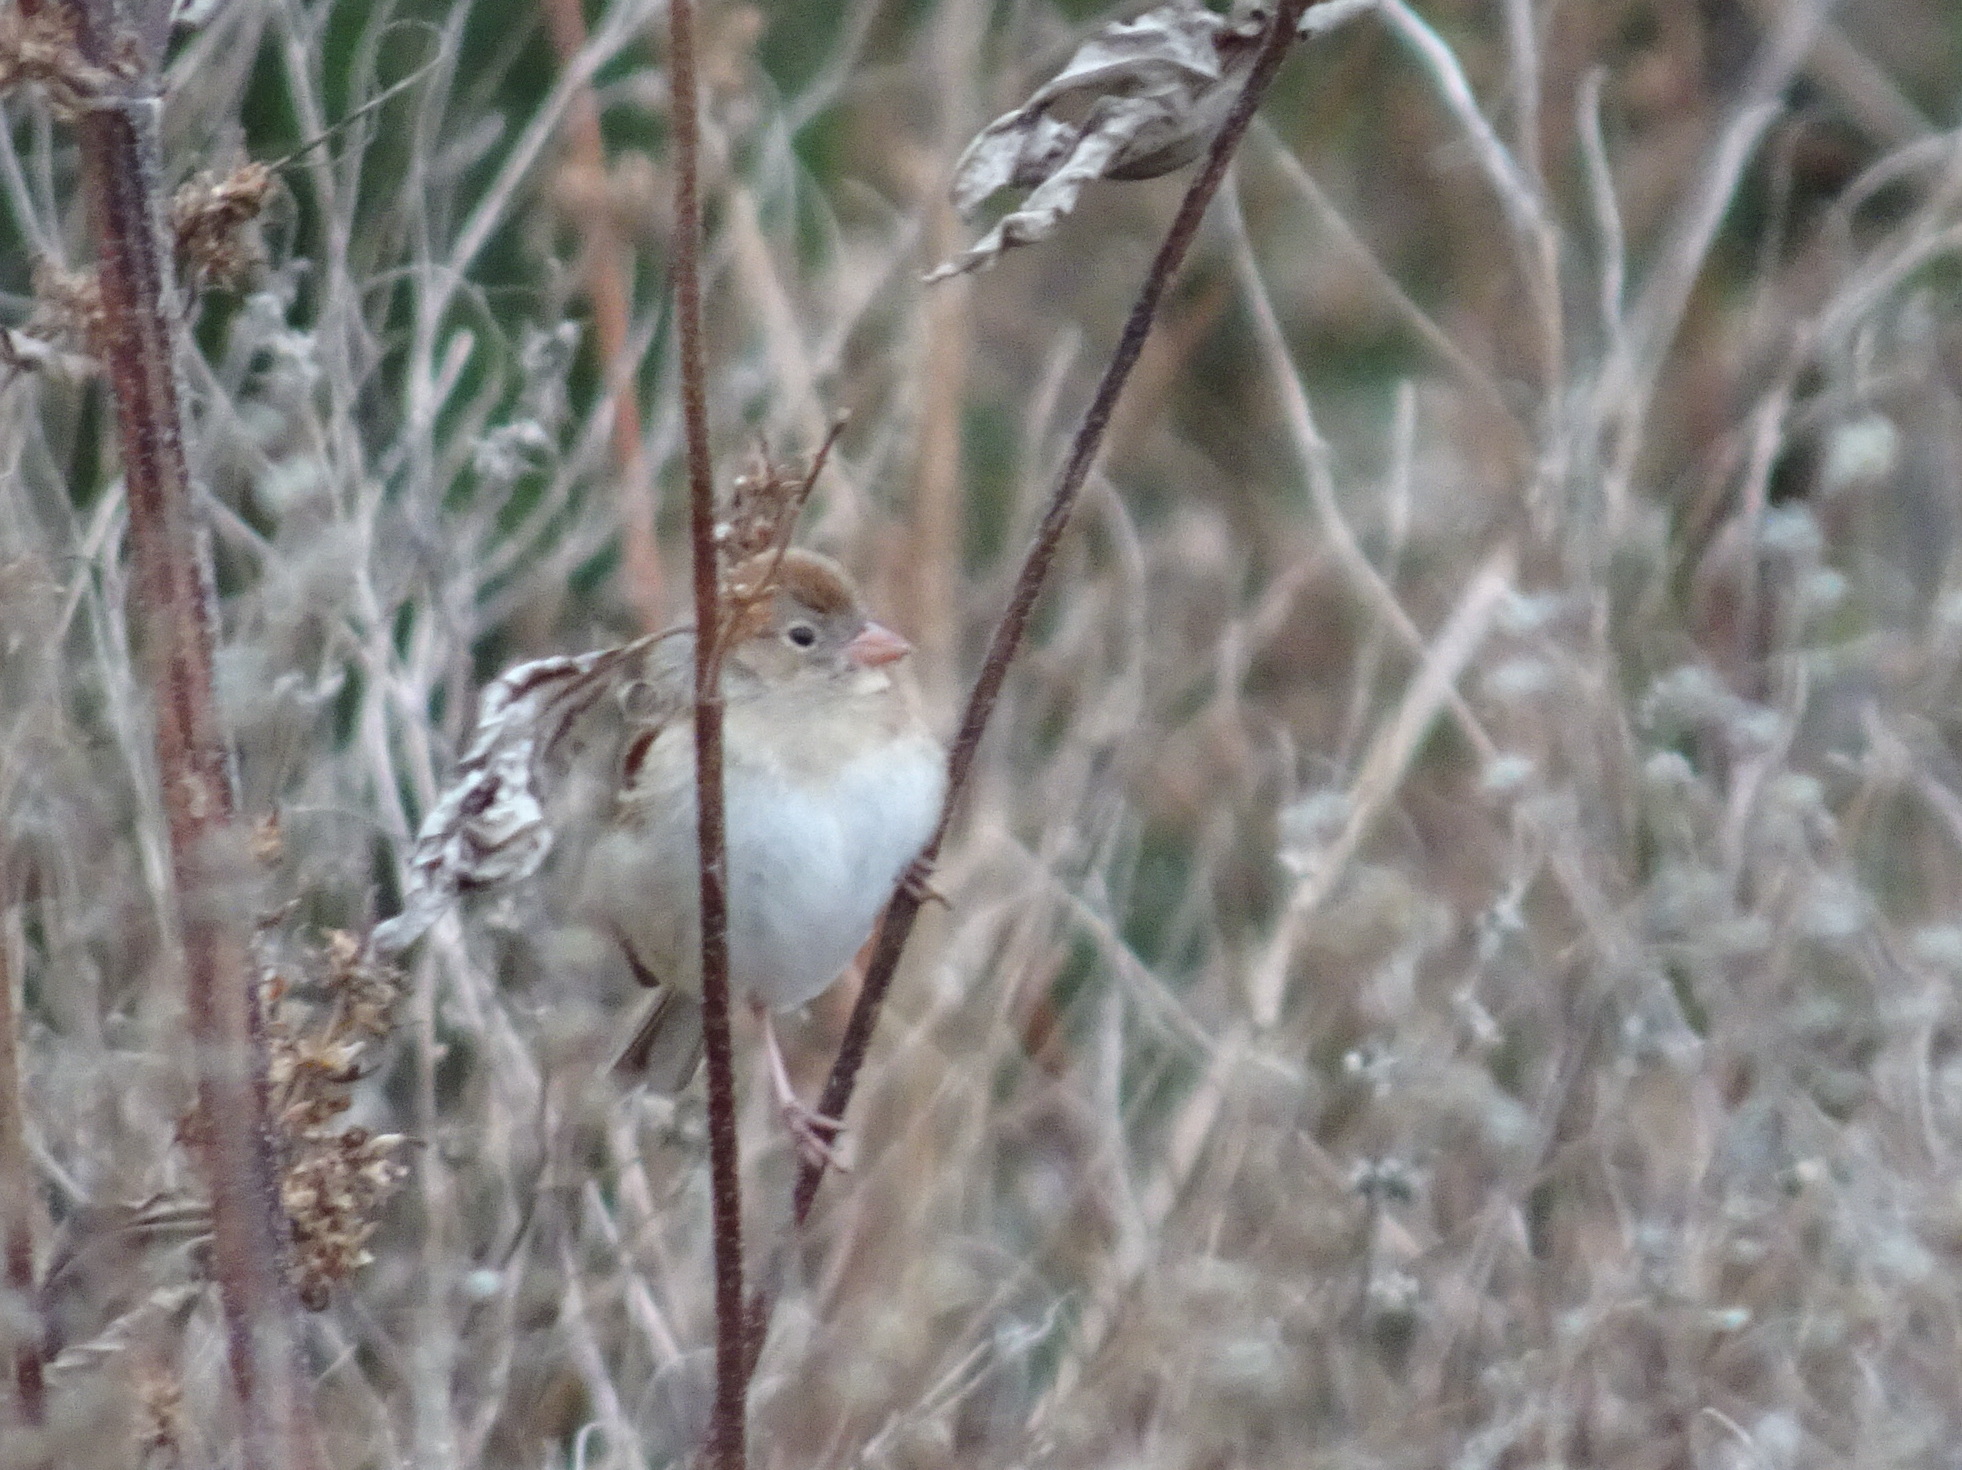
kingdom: Animalia
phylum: Chordata
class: Aves
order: Passeriformes
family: Passerellidae
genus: Spizella
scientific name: Spizella pusilla
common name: Field sparrow
